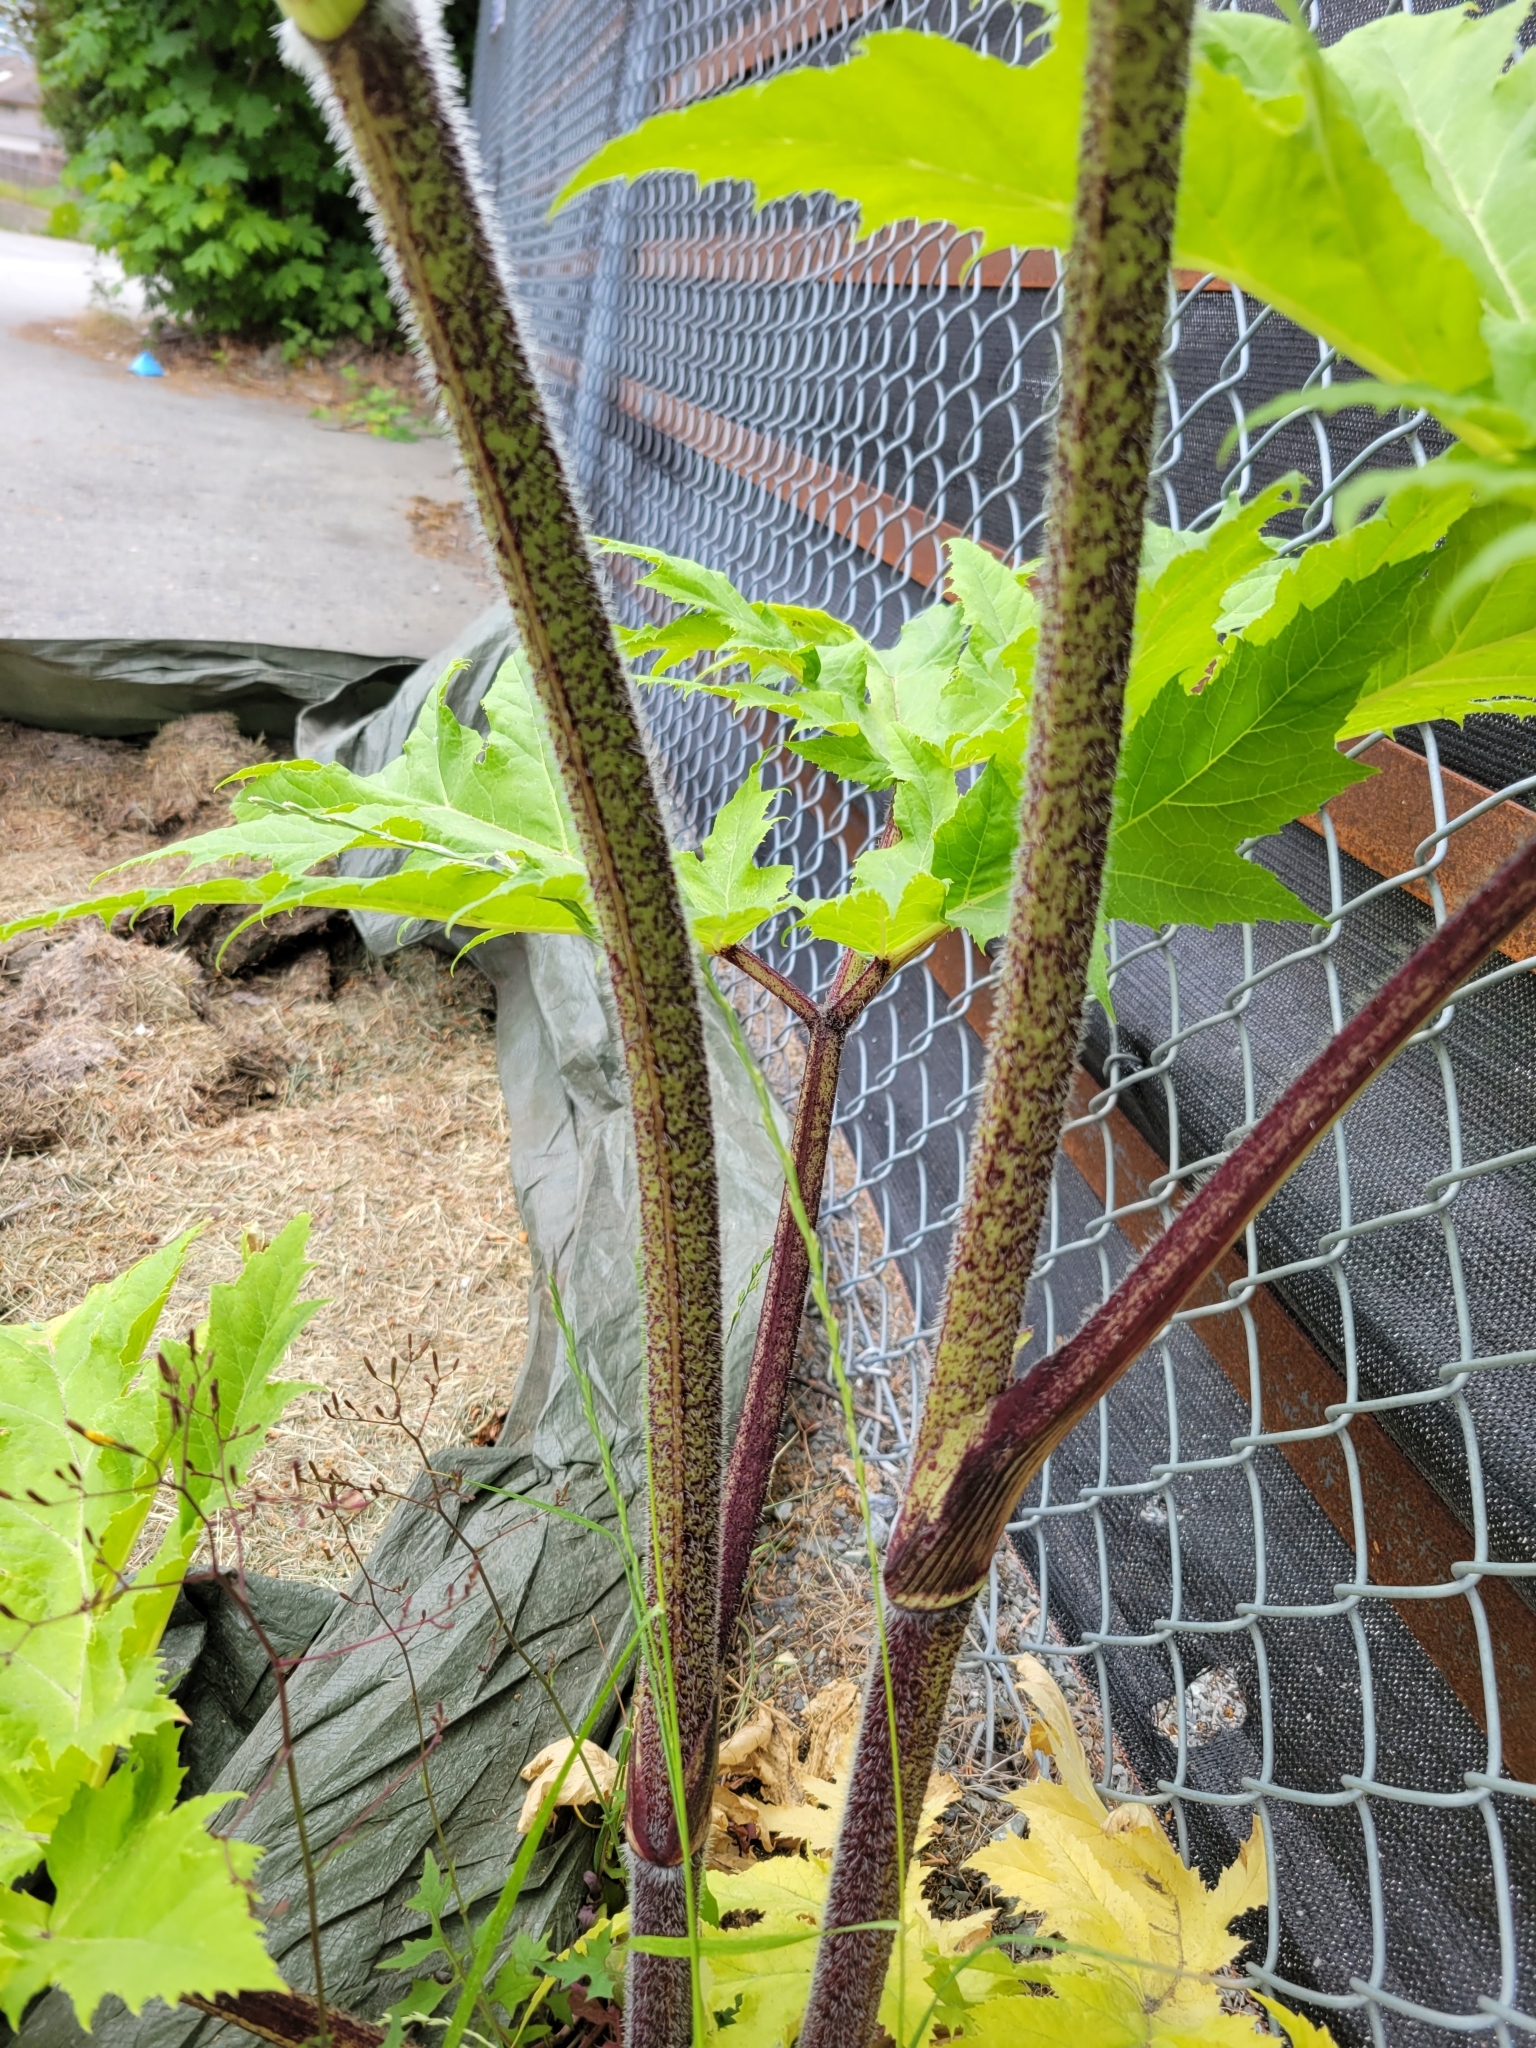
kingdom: Plantae
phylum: Tracheophyta
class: Magnoliopsida
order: Apiales
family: Apiaceae
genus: Heracleum
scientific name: Heracleum mantegazzianum
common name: Giant hogweed
